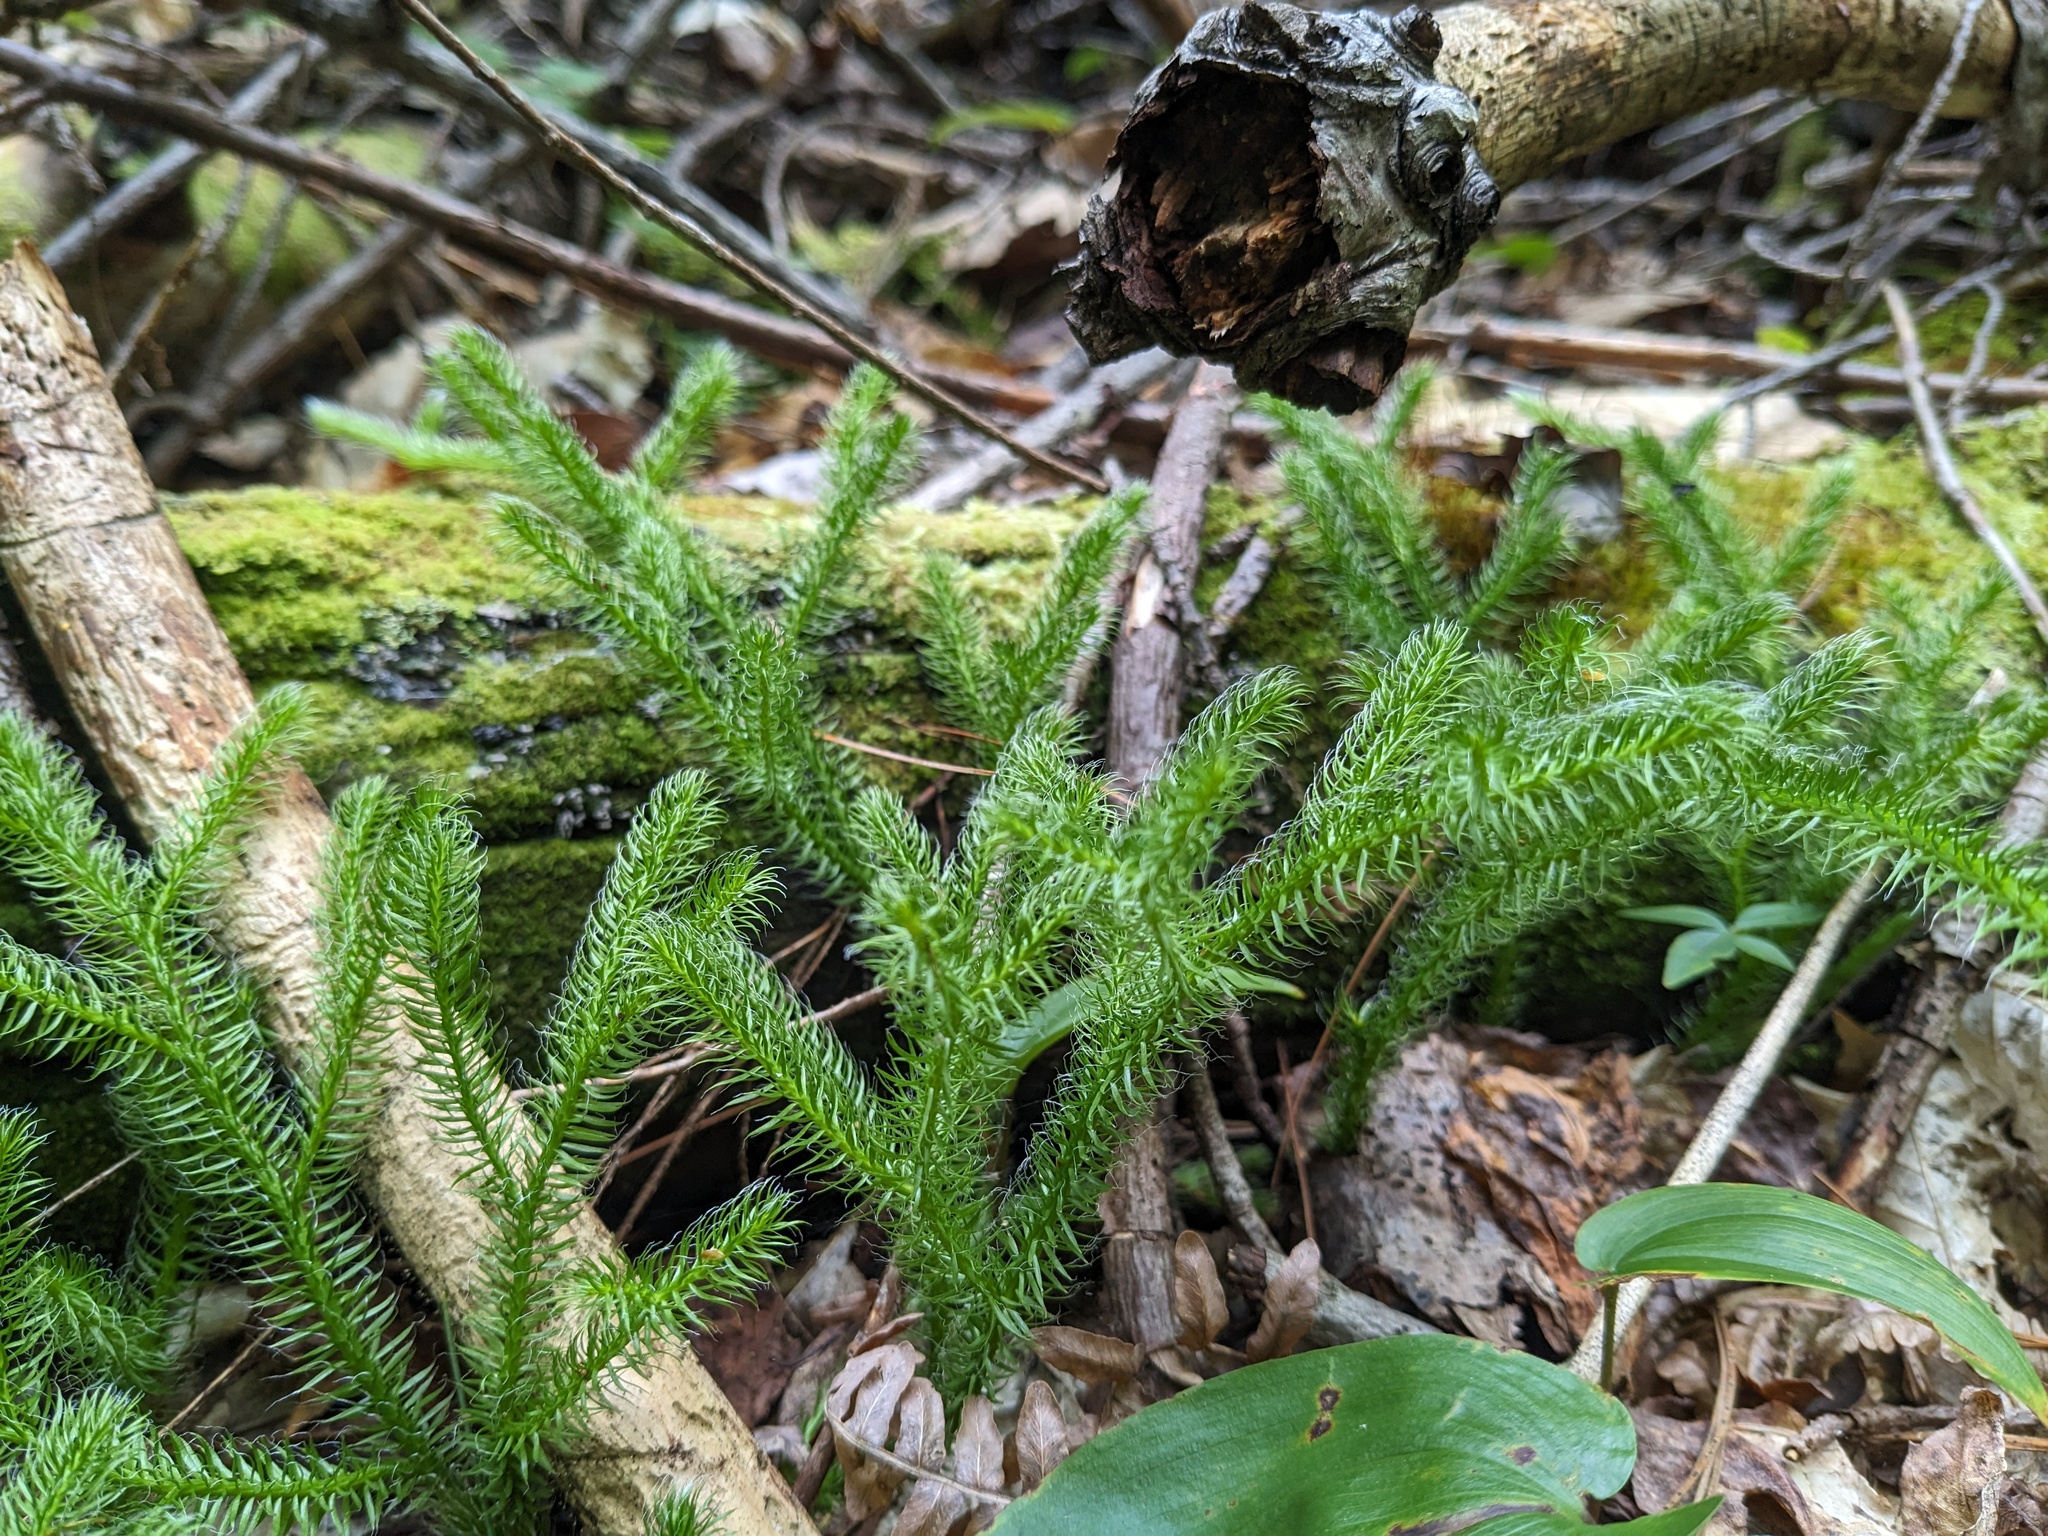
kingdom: Plantae
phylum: Tracheophyta
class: Lycopodiopsida
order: Lycopodiales
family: Lycopodiaceae
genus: Lycopodium
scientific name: Lycopodium clavatum
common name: Stag's-horn clubmoss
